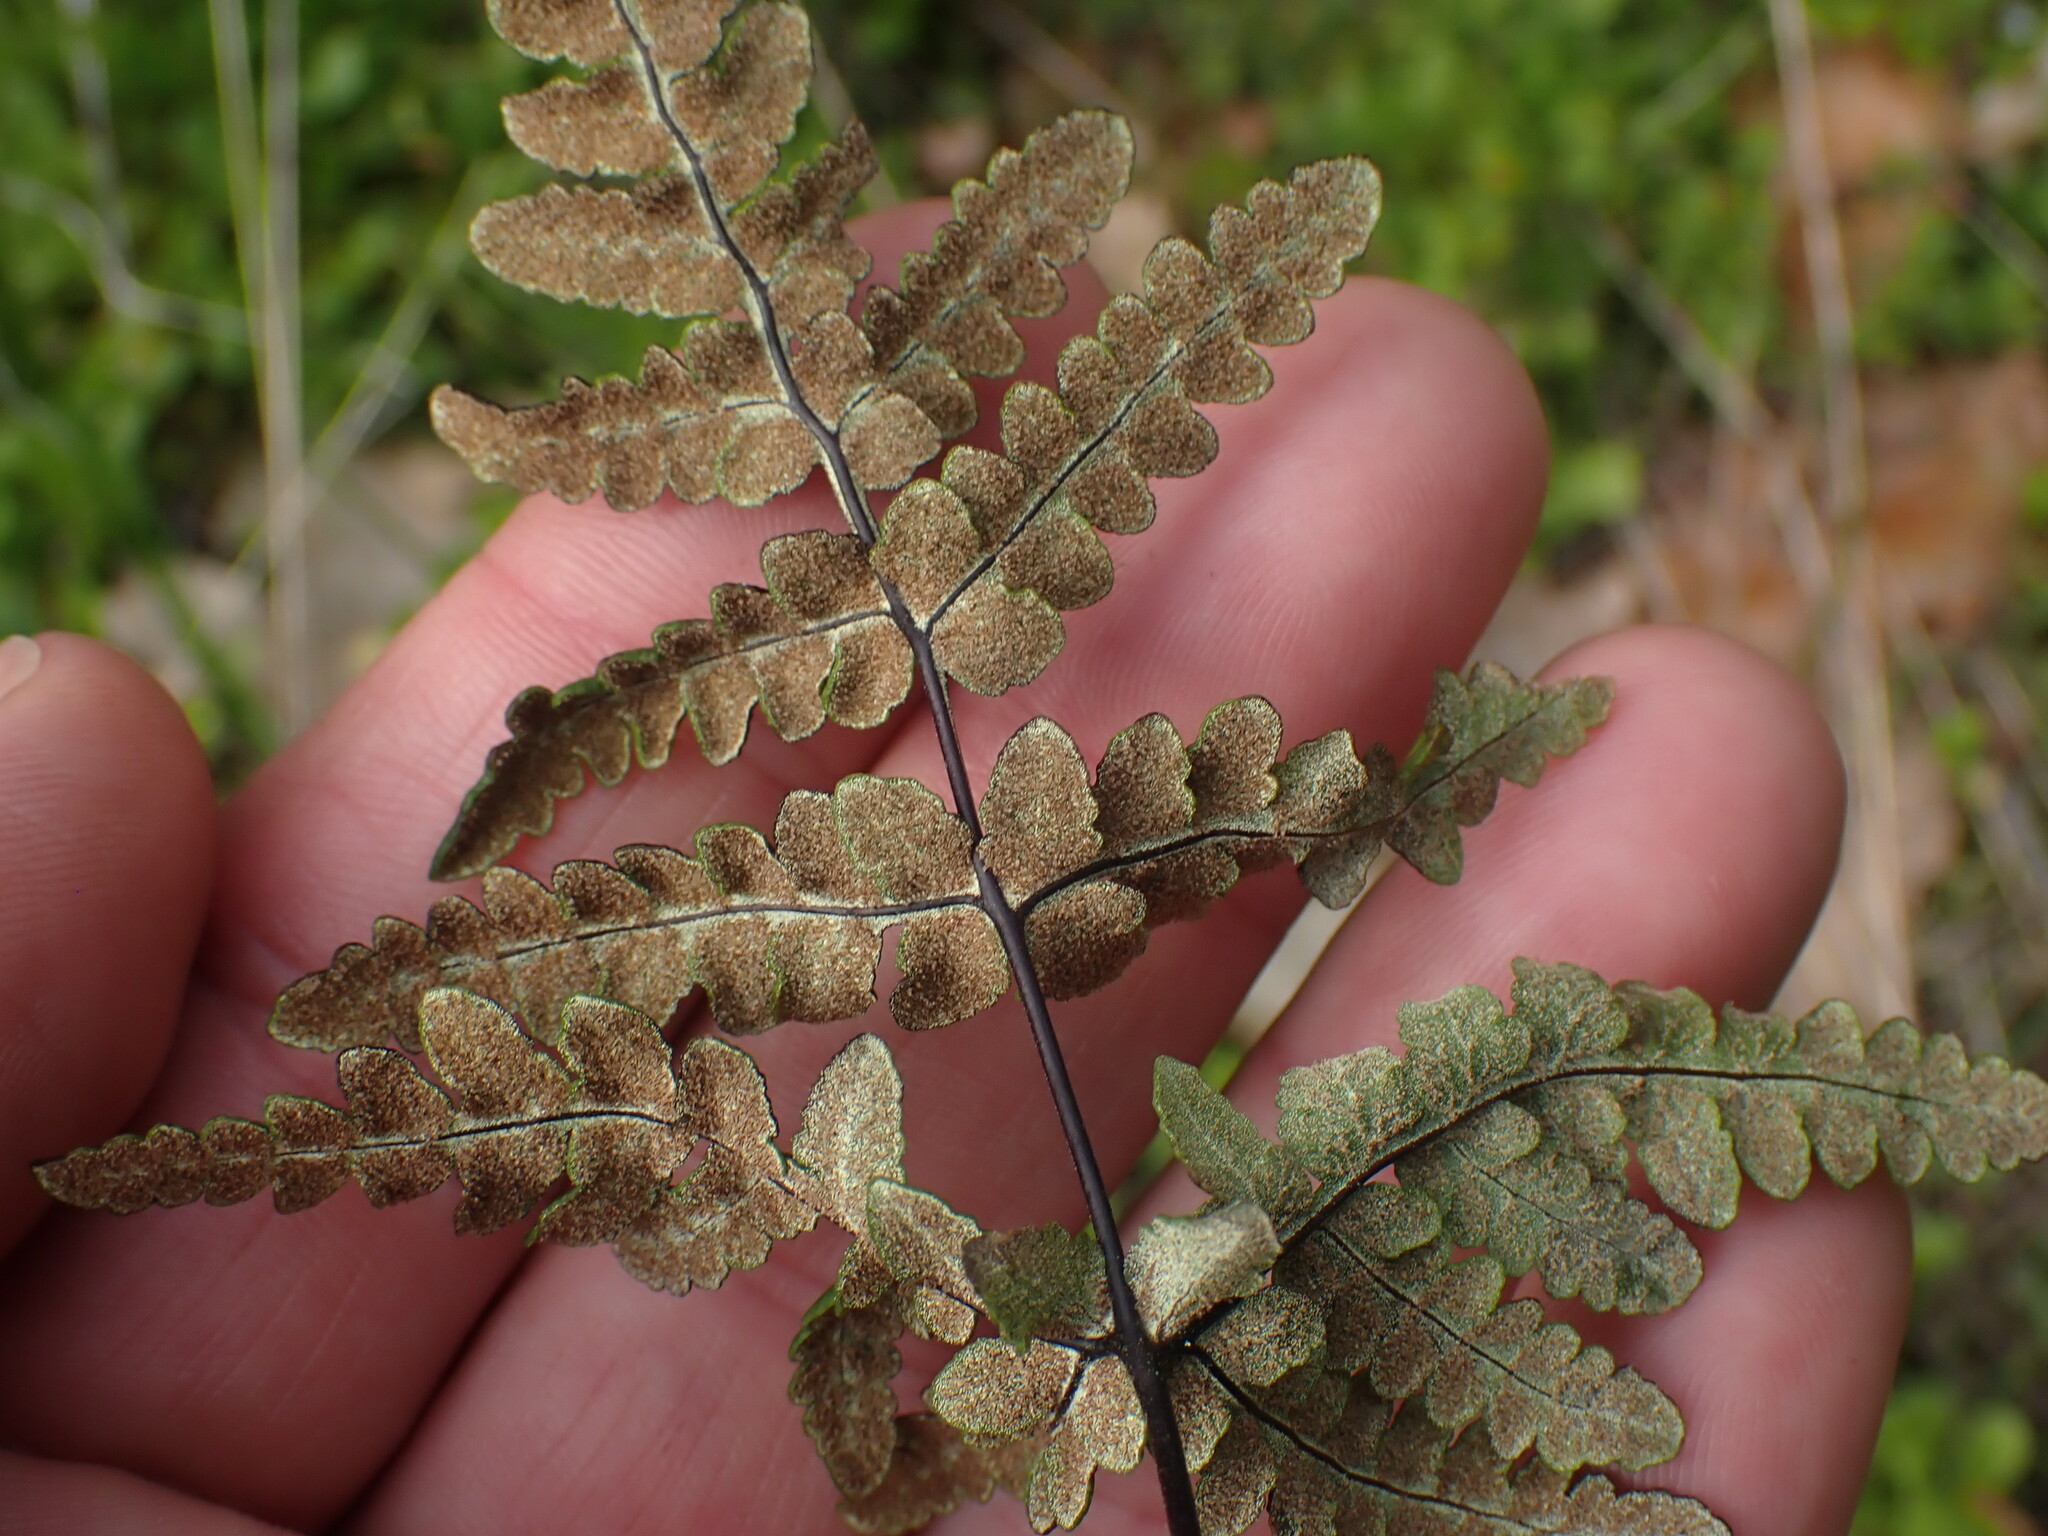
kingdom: Plantae
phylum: Tracheophyta
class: Polypodiopsida
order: Polypodiales
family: Pteridaceae
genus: Pentagramma
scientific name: Pentagramma triangularis
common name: Gold fern
